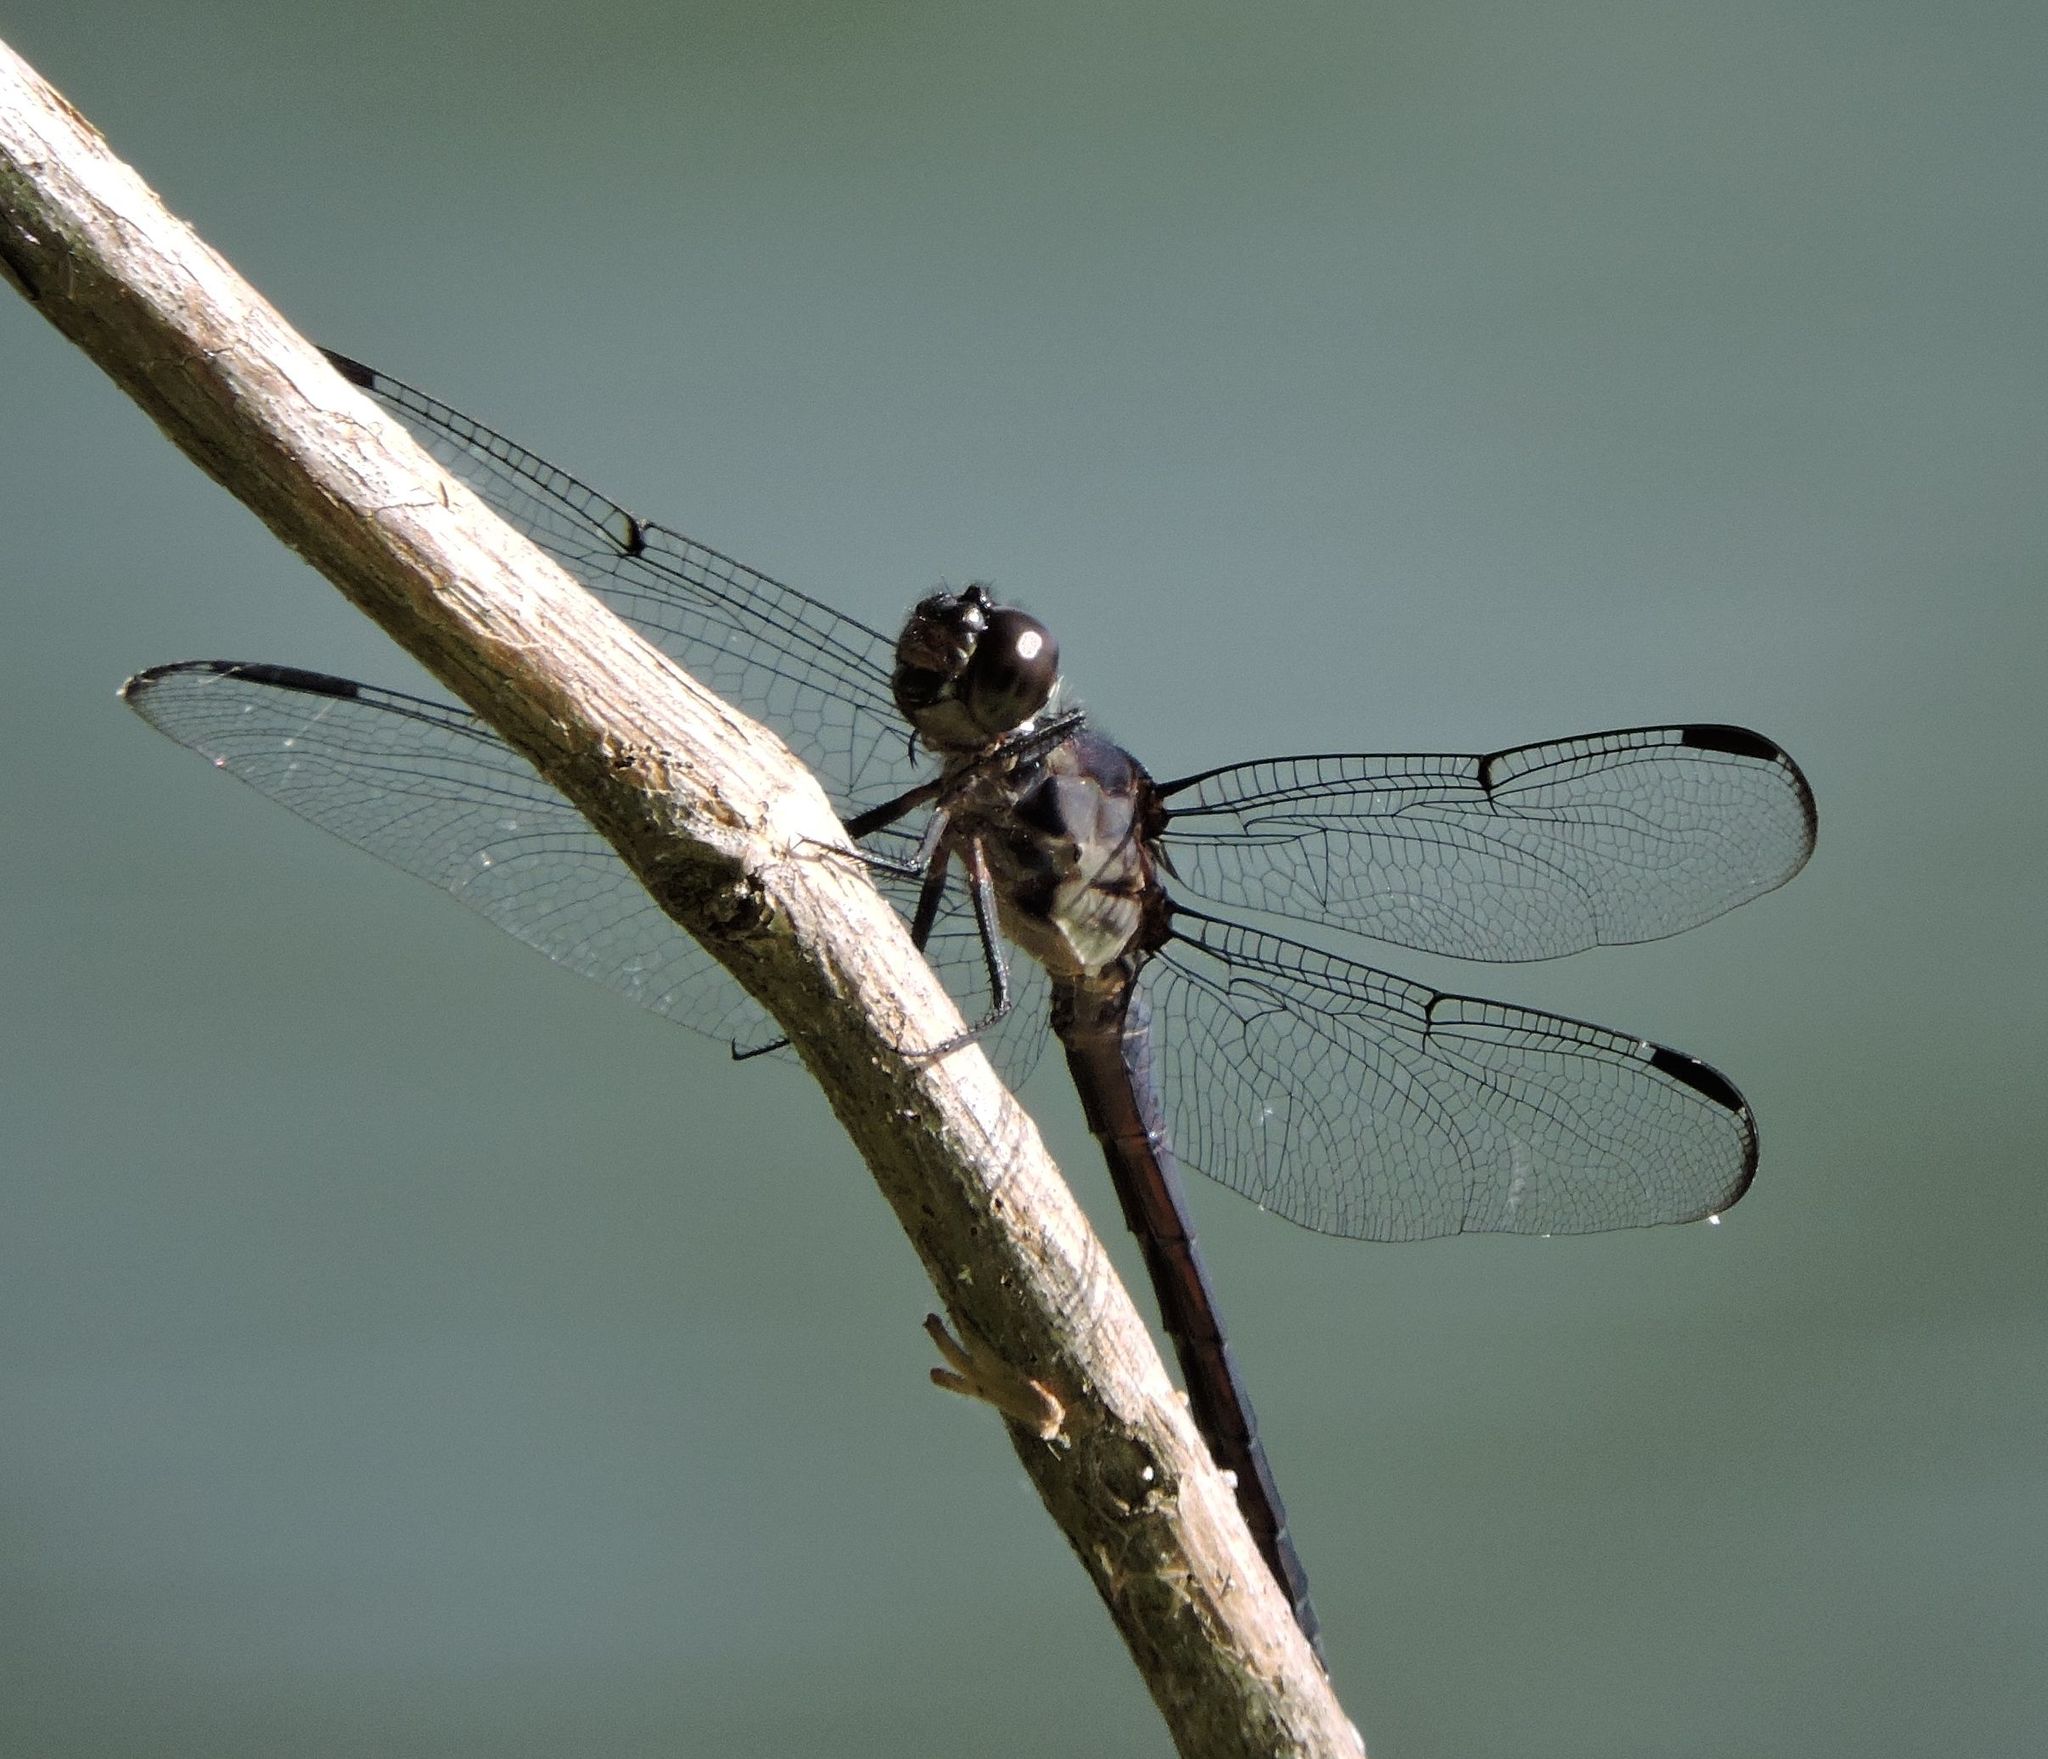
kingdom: Animalia
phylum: Arthropoda
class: Insecta
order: Odonata
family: Libellulidae
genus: Libellula
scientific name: Libellula incesta
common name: Slaty skimmer
